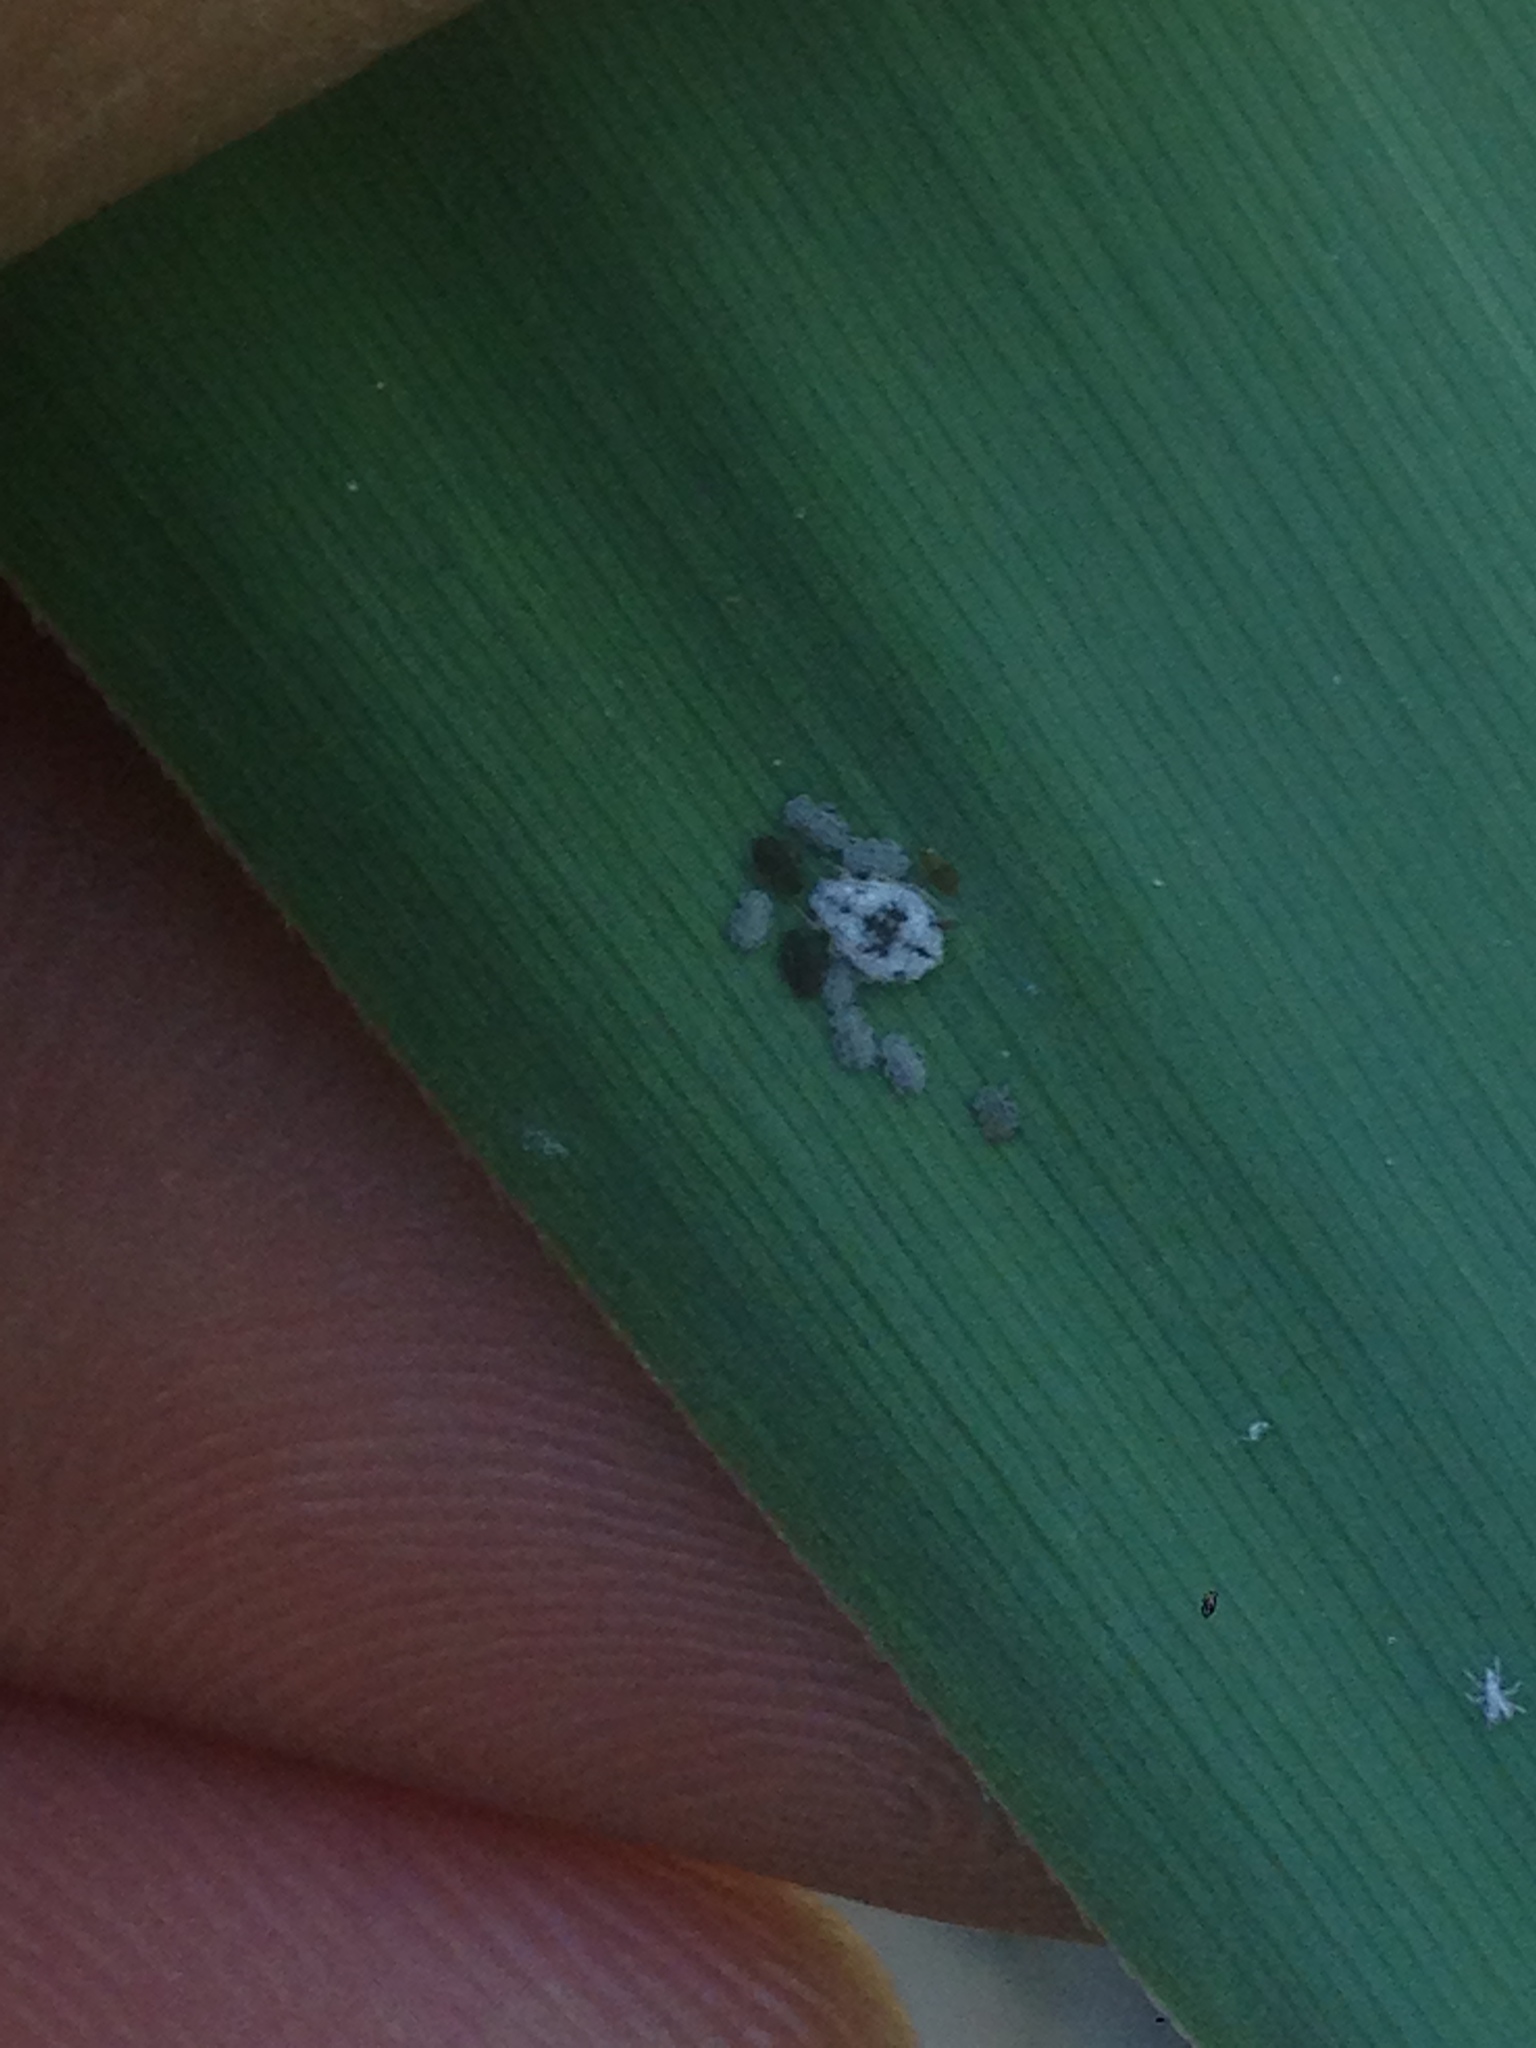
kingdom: Animalia
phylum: Arthropoda
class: Insecta
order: Hemiptera
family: Aphididae
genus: Melanaphis
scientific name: Melanaphis donacis
